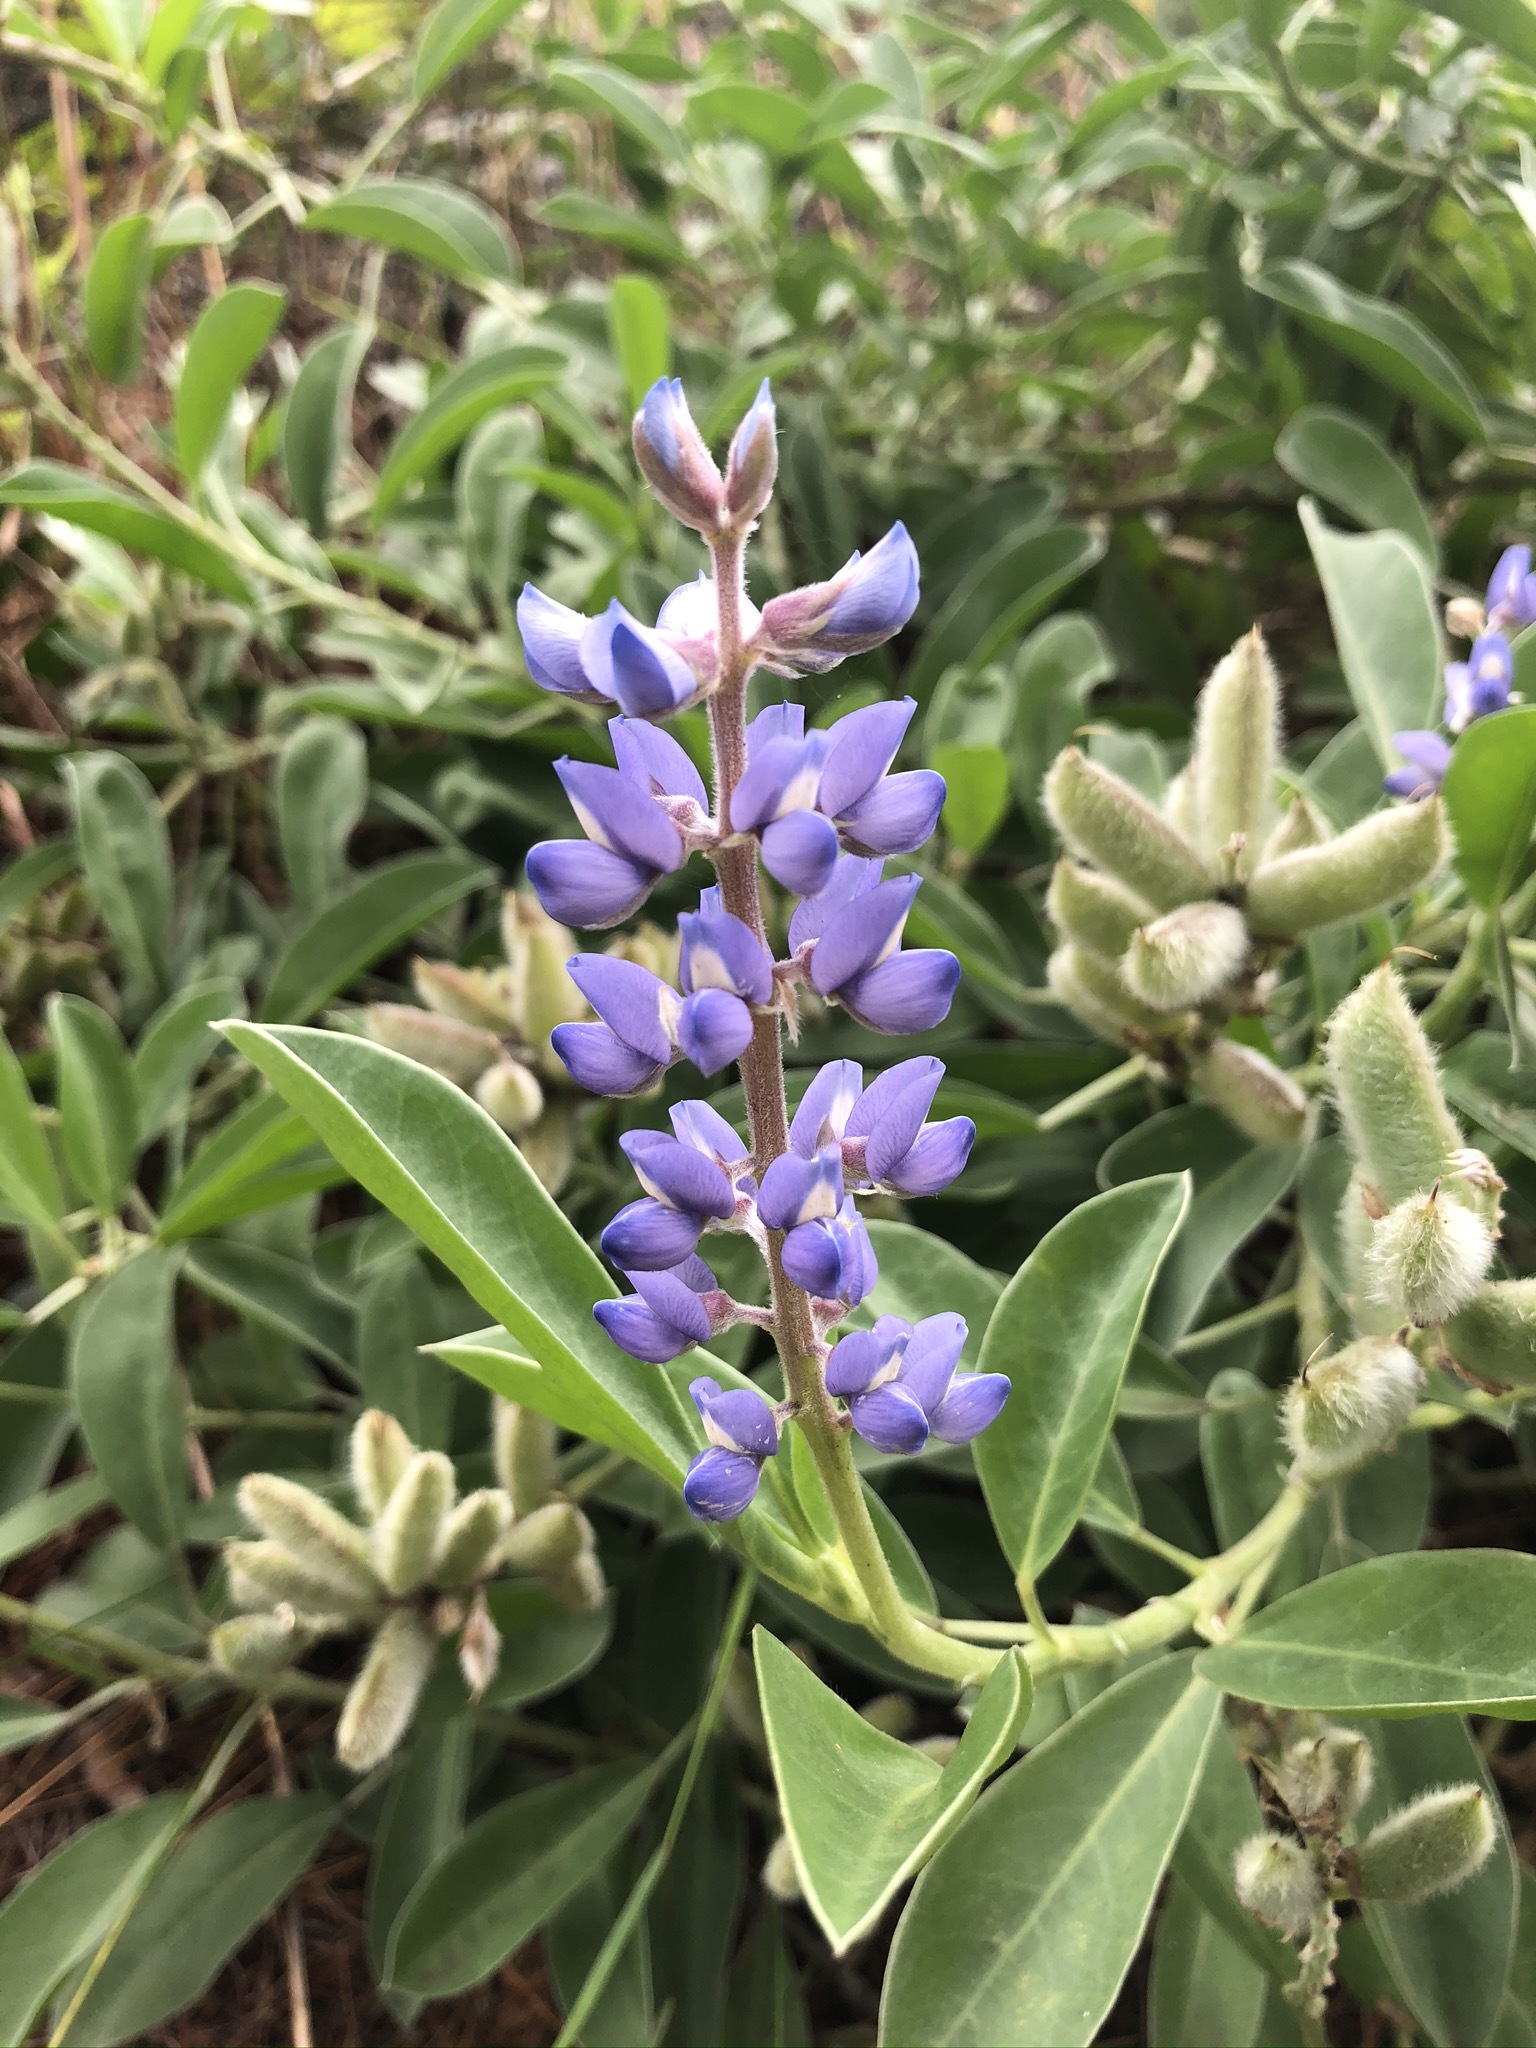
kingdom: Plantae
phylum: Tracheophyta
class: Magnoliopsida
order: Fabales
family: Fabaceae
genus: Lupinus
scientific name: Lupinus
